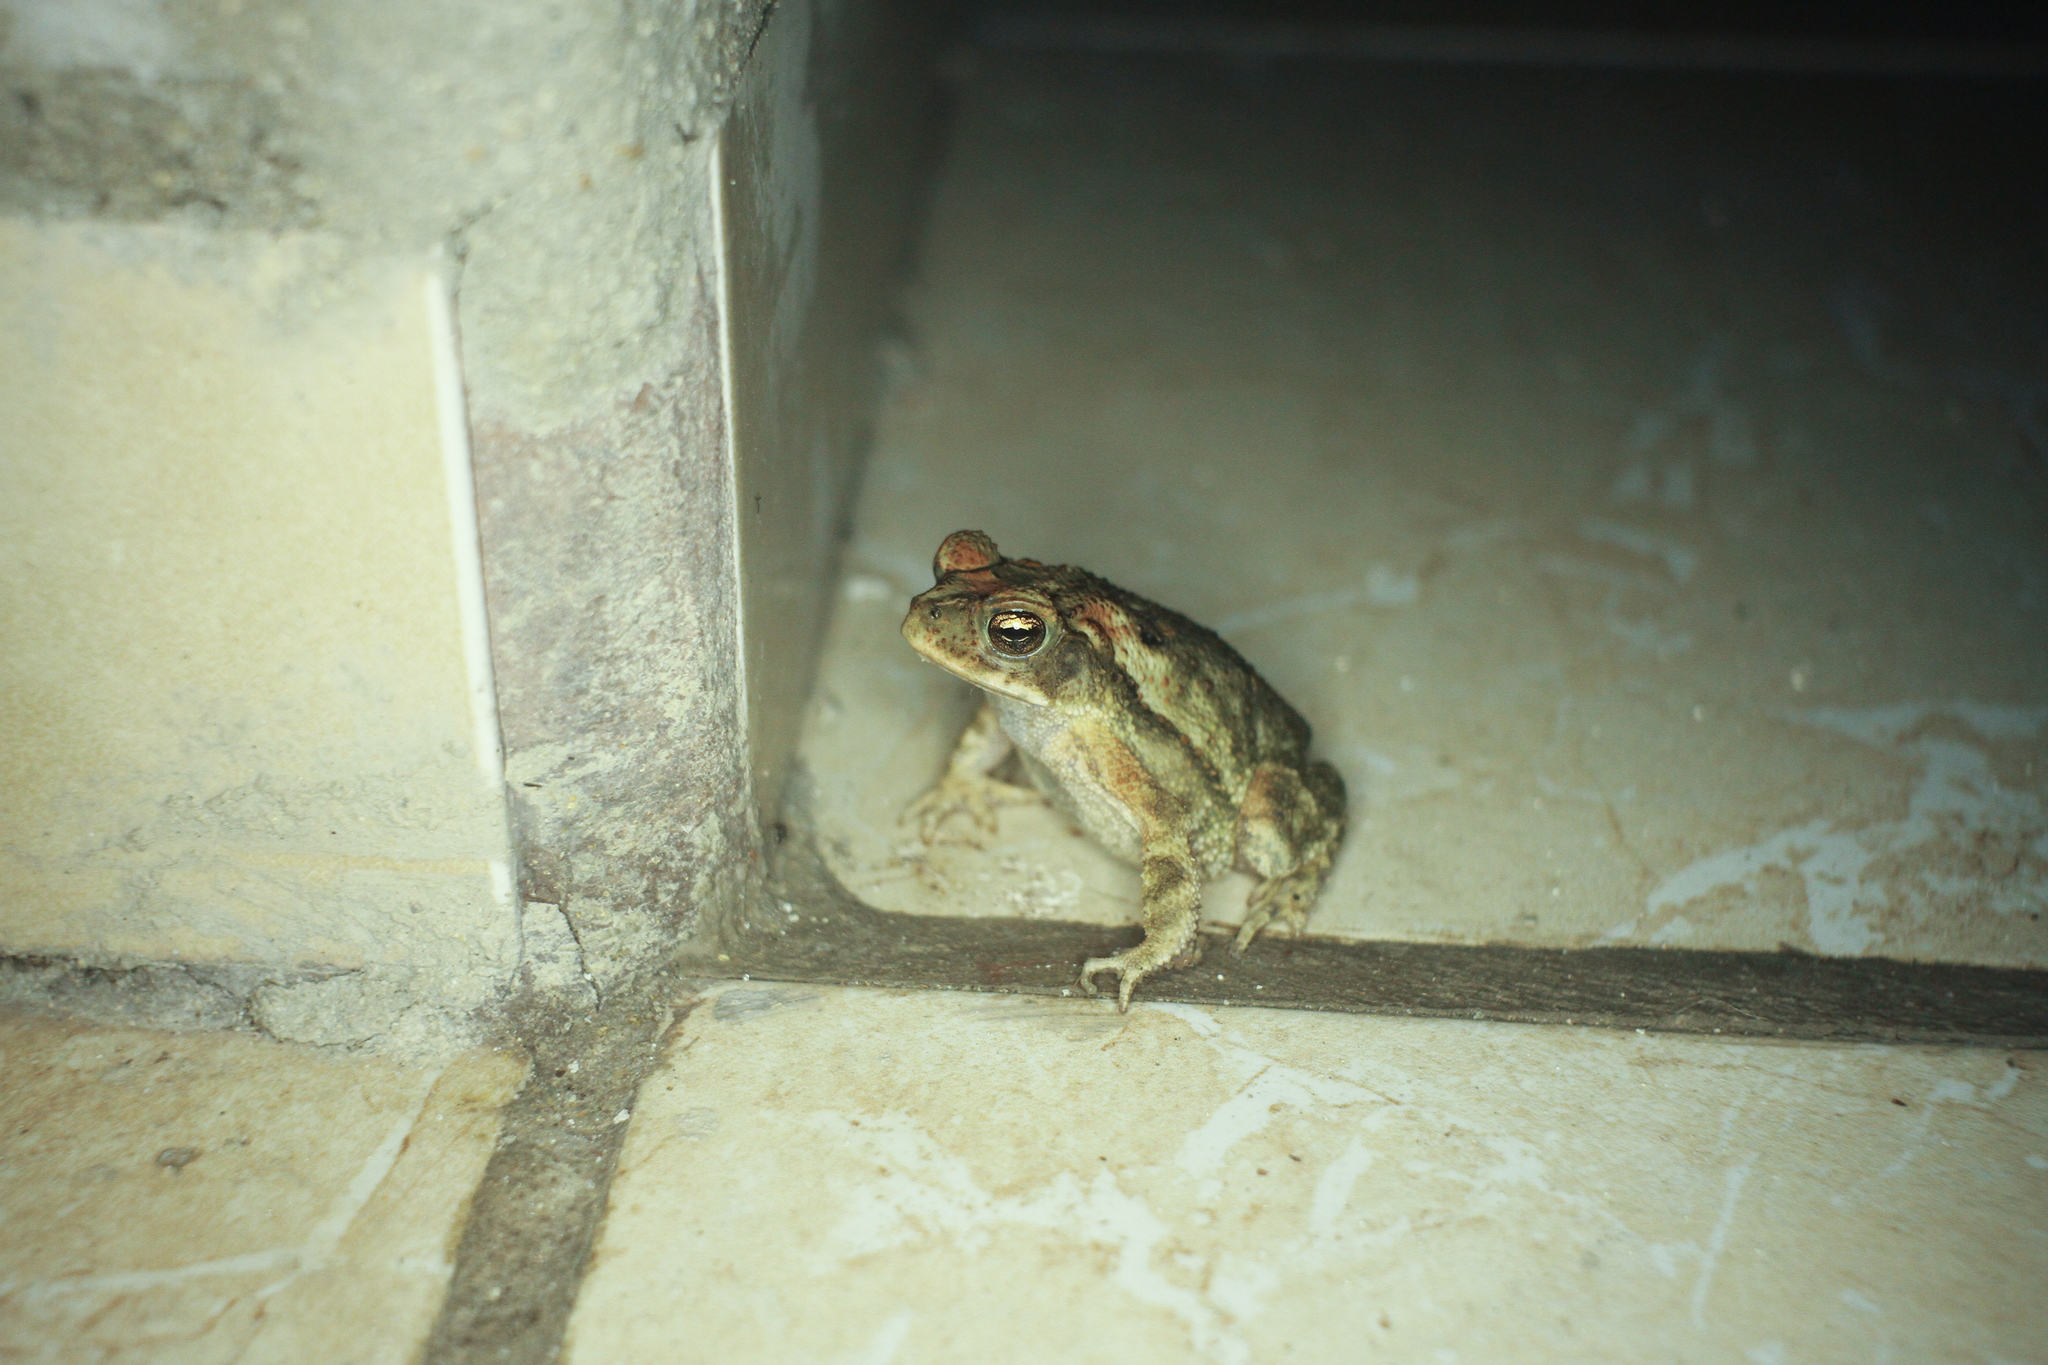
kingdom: Animalia
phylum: Chordata
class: Amphibia
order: Anura
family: Bufonidae
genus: Incilius
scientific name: Incilius luetkenii
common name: Yellow toad
